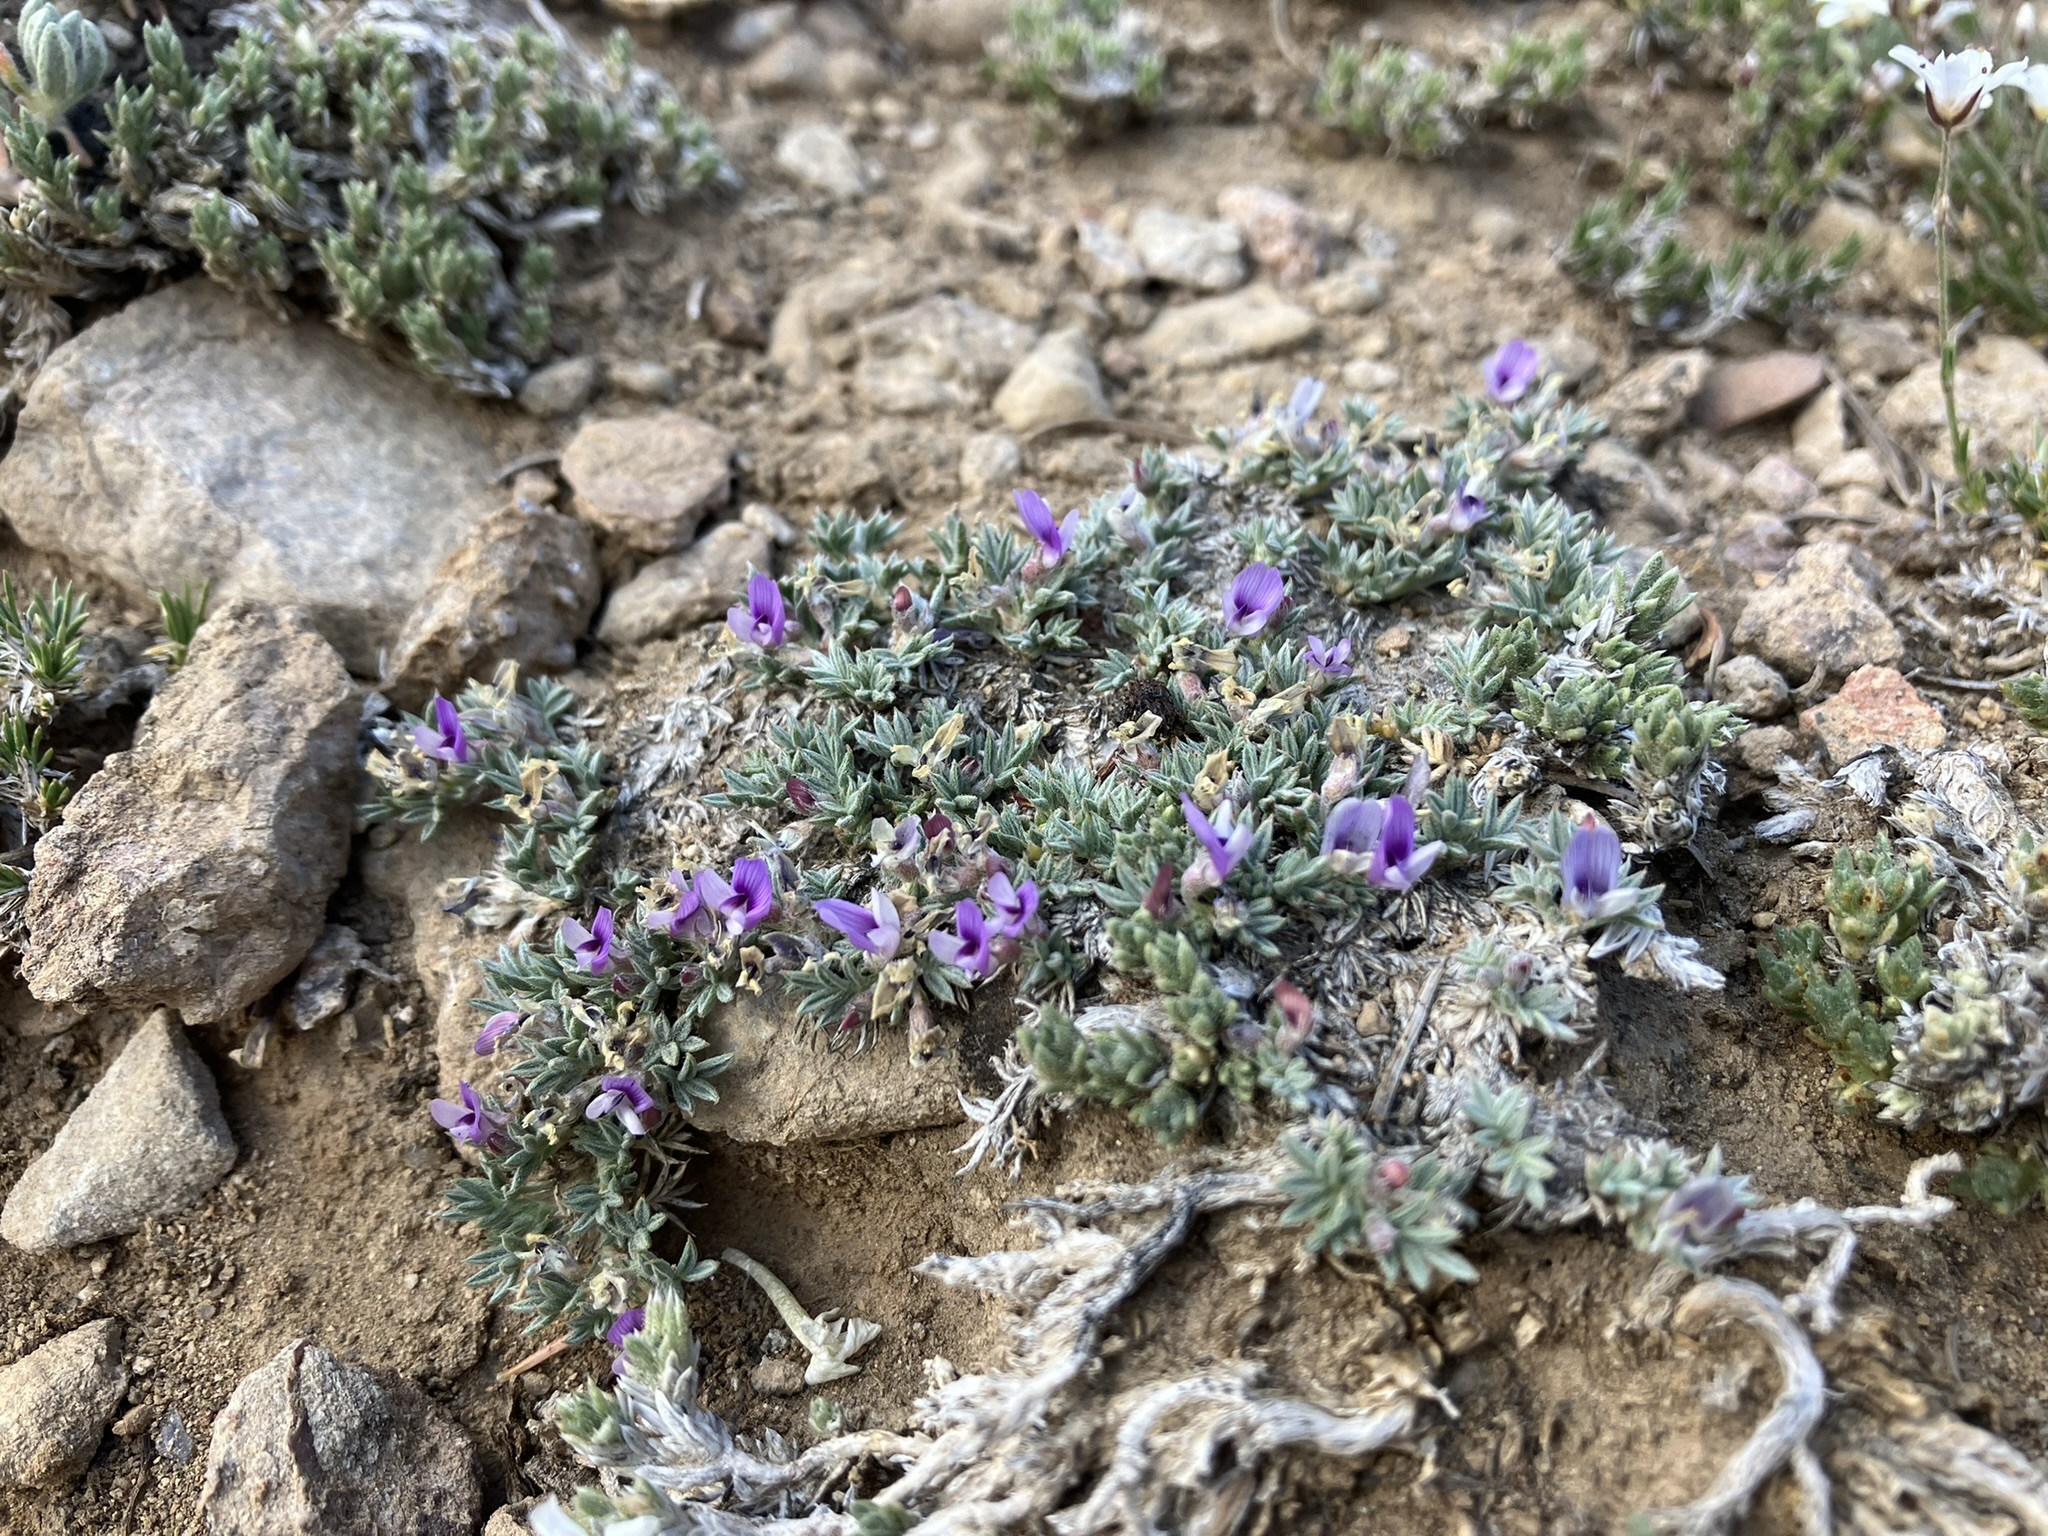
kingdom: Plantae
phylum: Tracheophyta
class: Magnoliopsida
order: Fabales
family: Fabaceae
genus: Astragalus
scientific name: Astragalus kentrophyta
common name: Prickly milk-vetch
